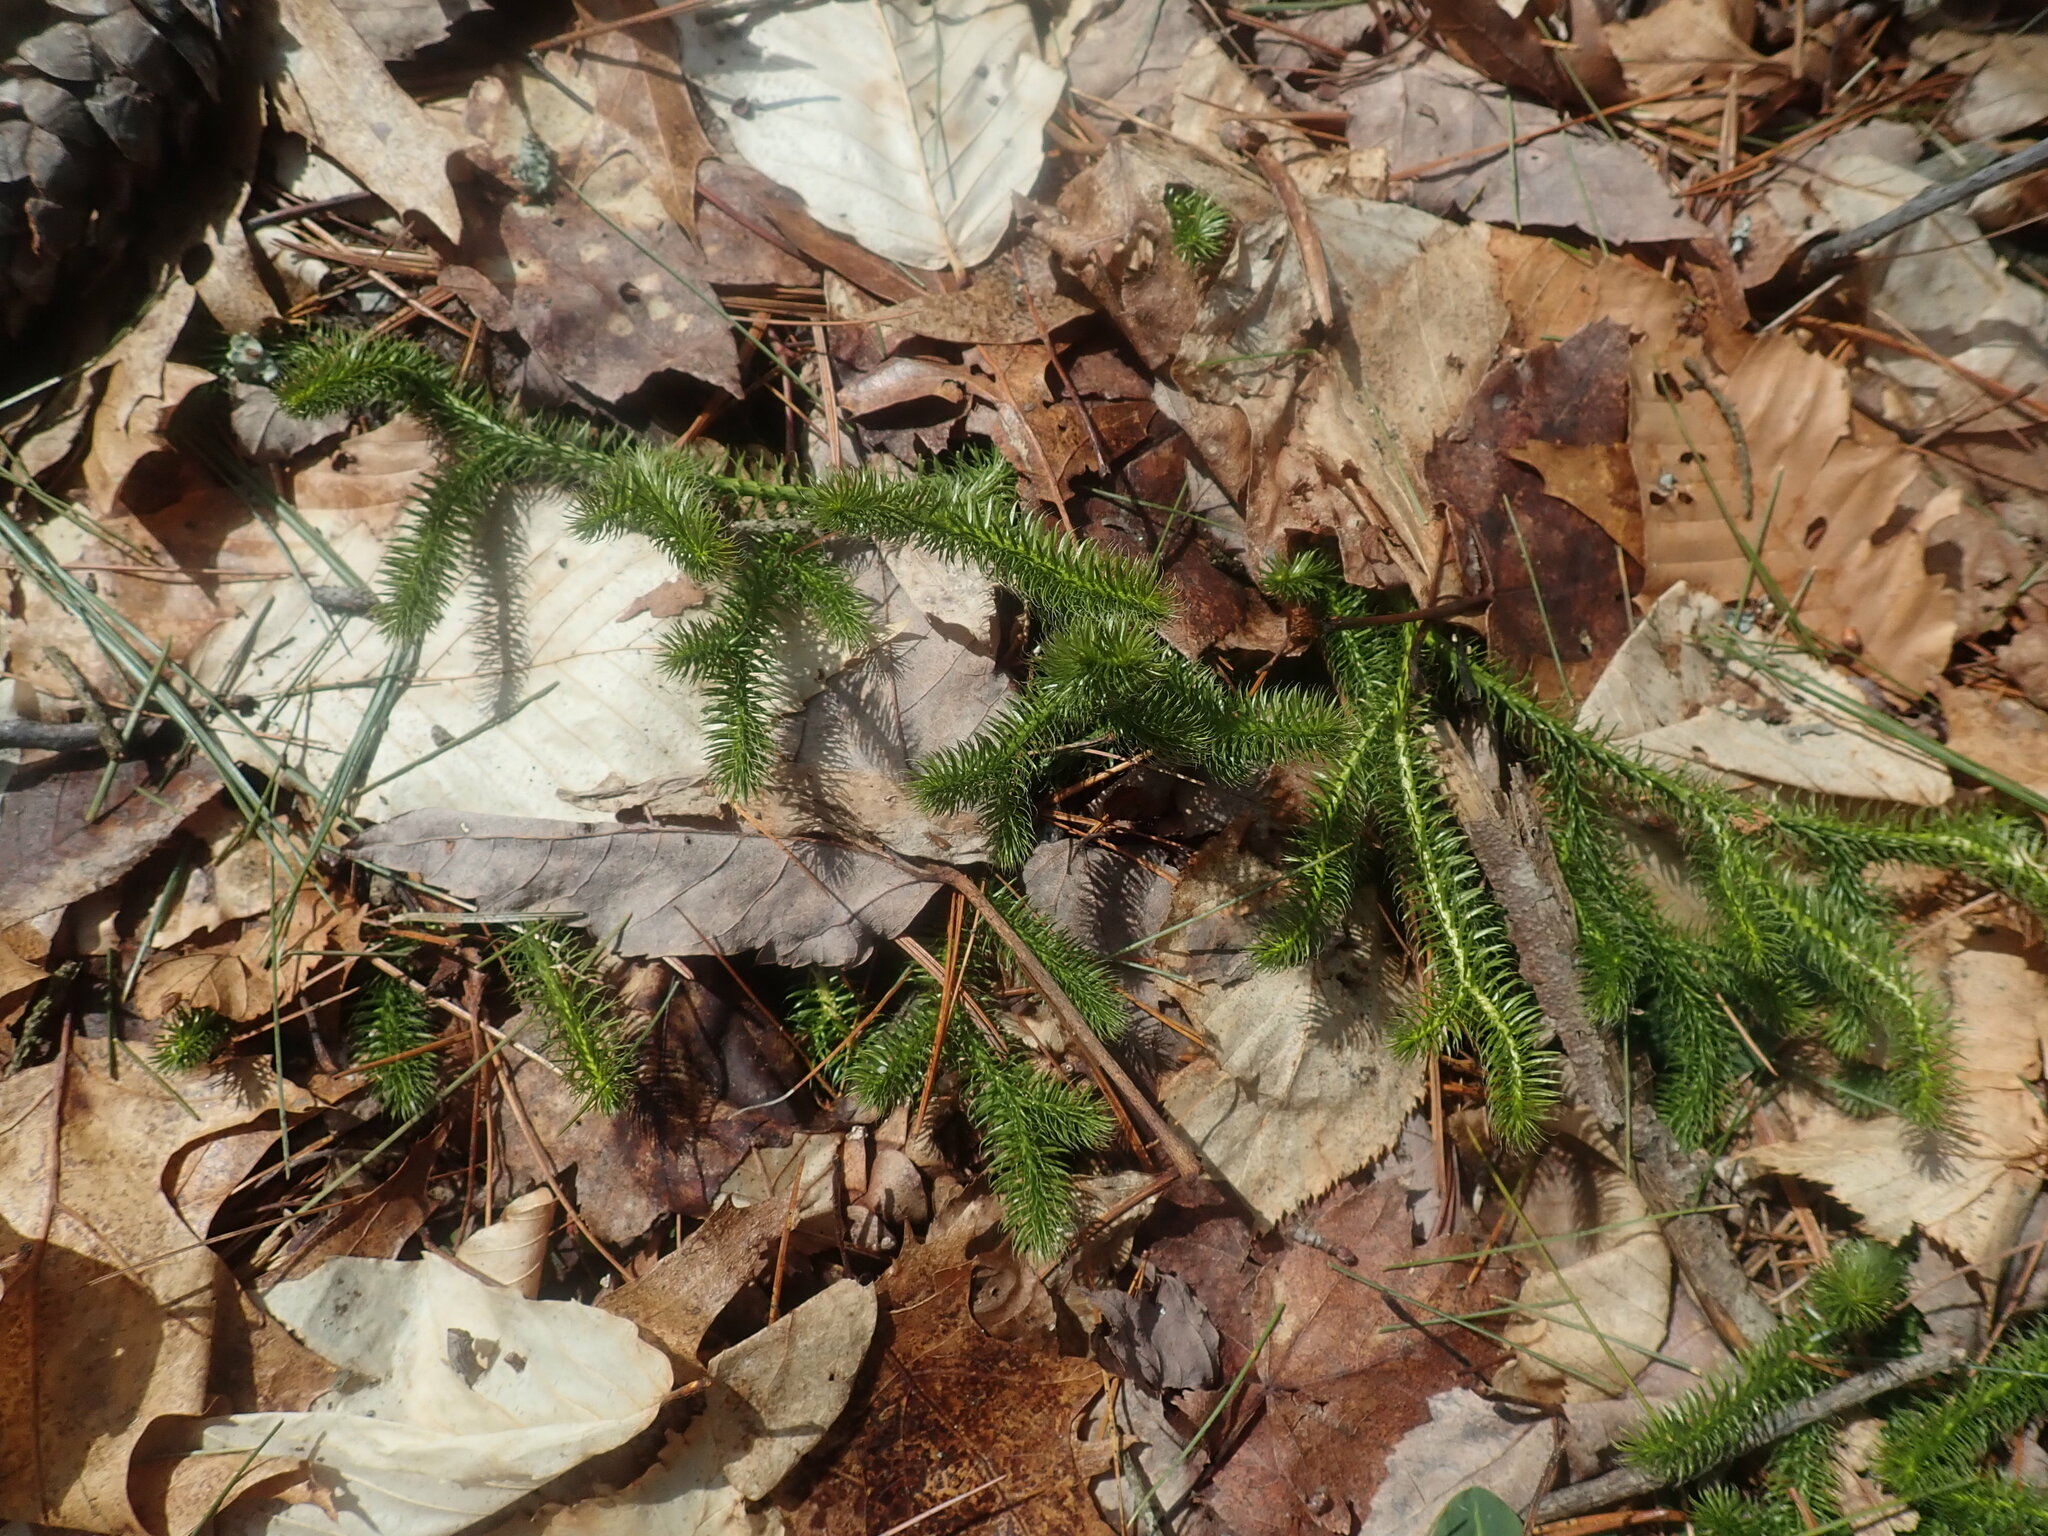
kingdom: Plantae
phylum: Tracheophyta
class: Lycopodiopsida
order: Lycopodiales
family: Lycopodiaceae
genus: Lycopodium
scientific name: Lycopodium clavatum
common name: Stag's-horn clubmoss
